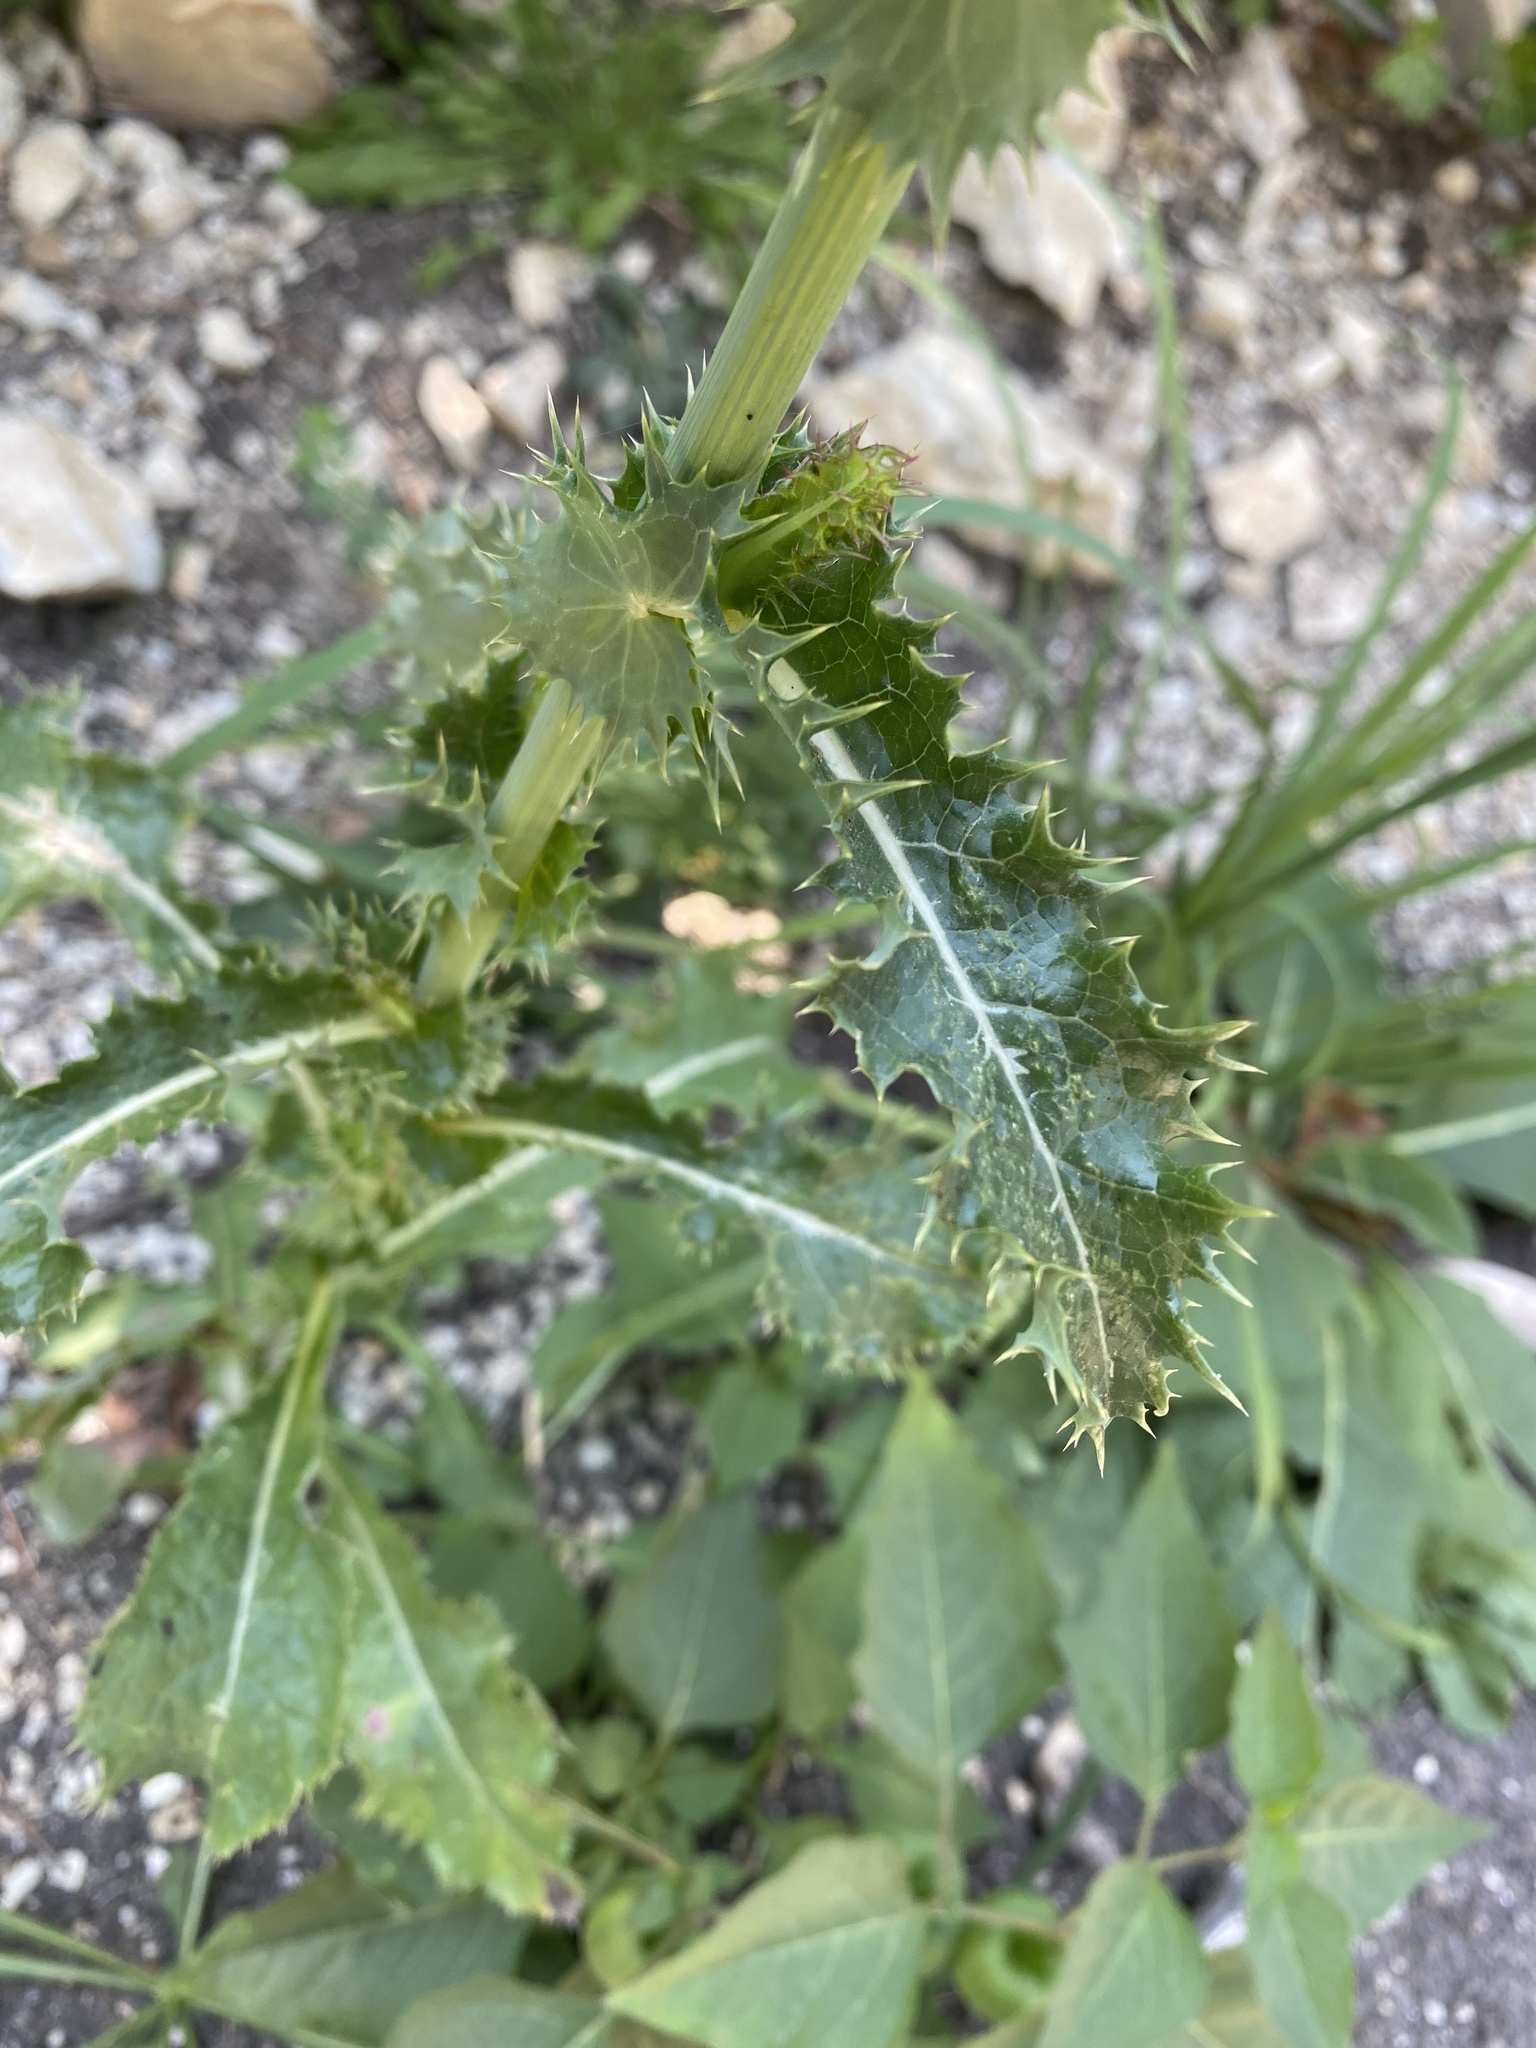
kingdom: Plantae
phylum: Tracheophyta
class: Magnoliopsida
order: Asterales
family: Asteraceae
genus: Sonchus
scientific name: Sonchus asper
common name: Prickly sow-thistle
